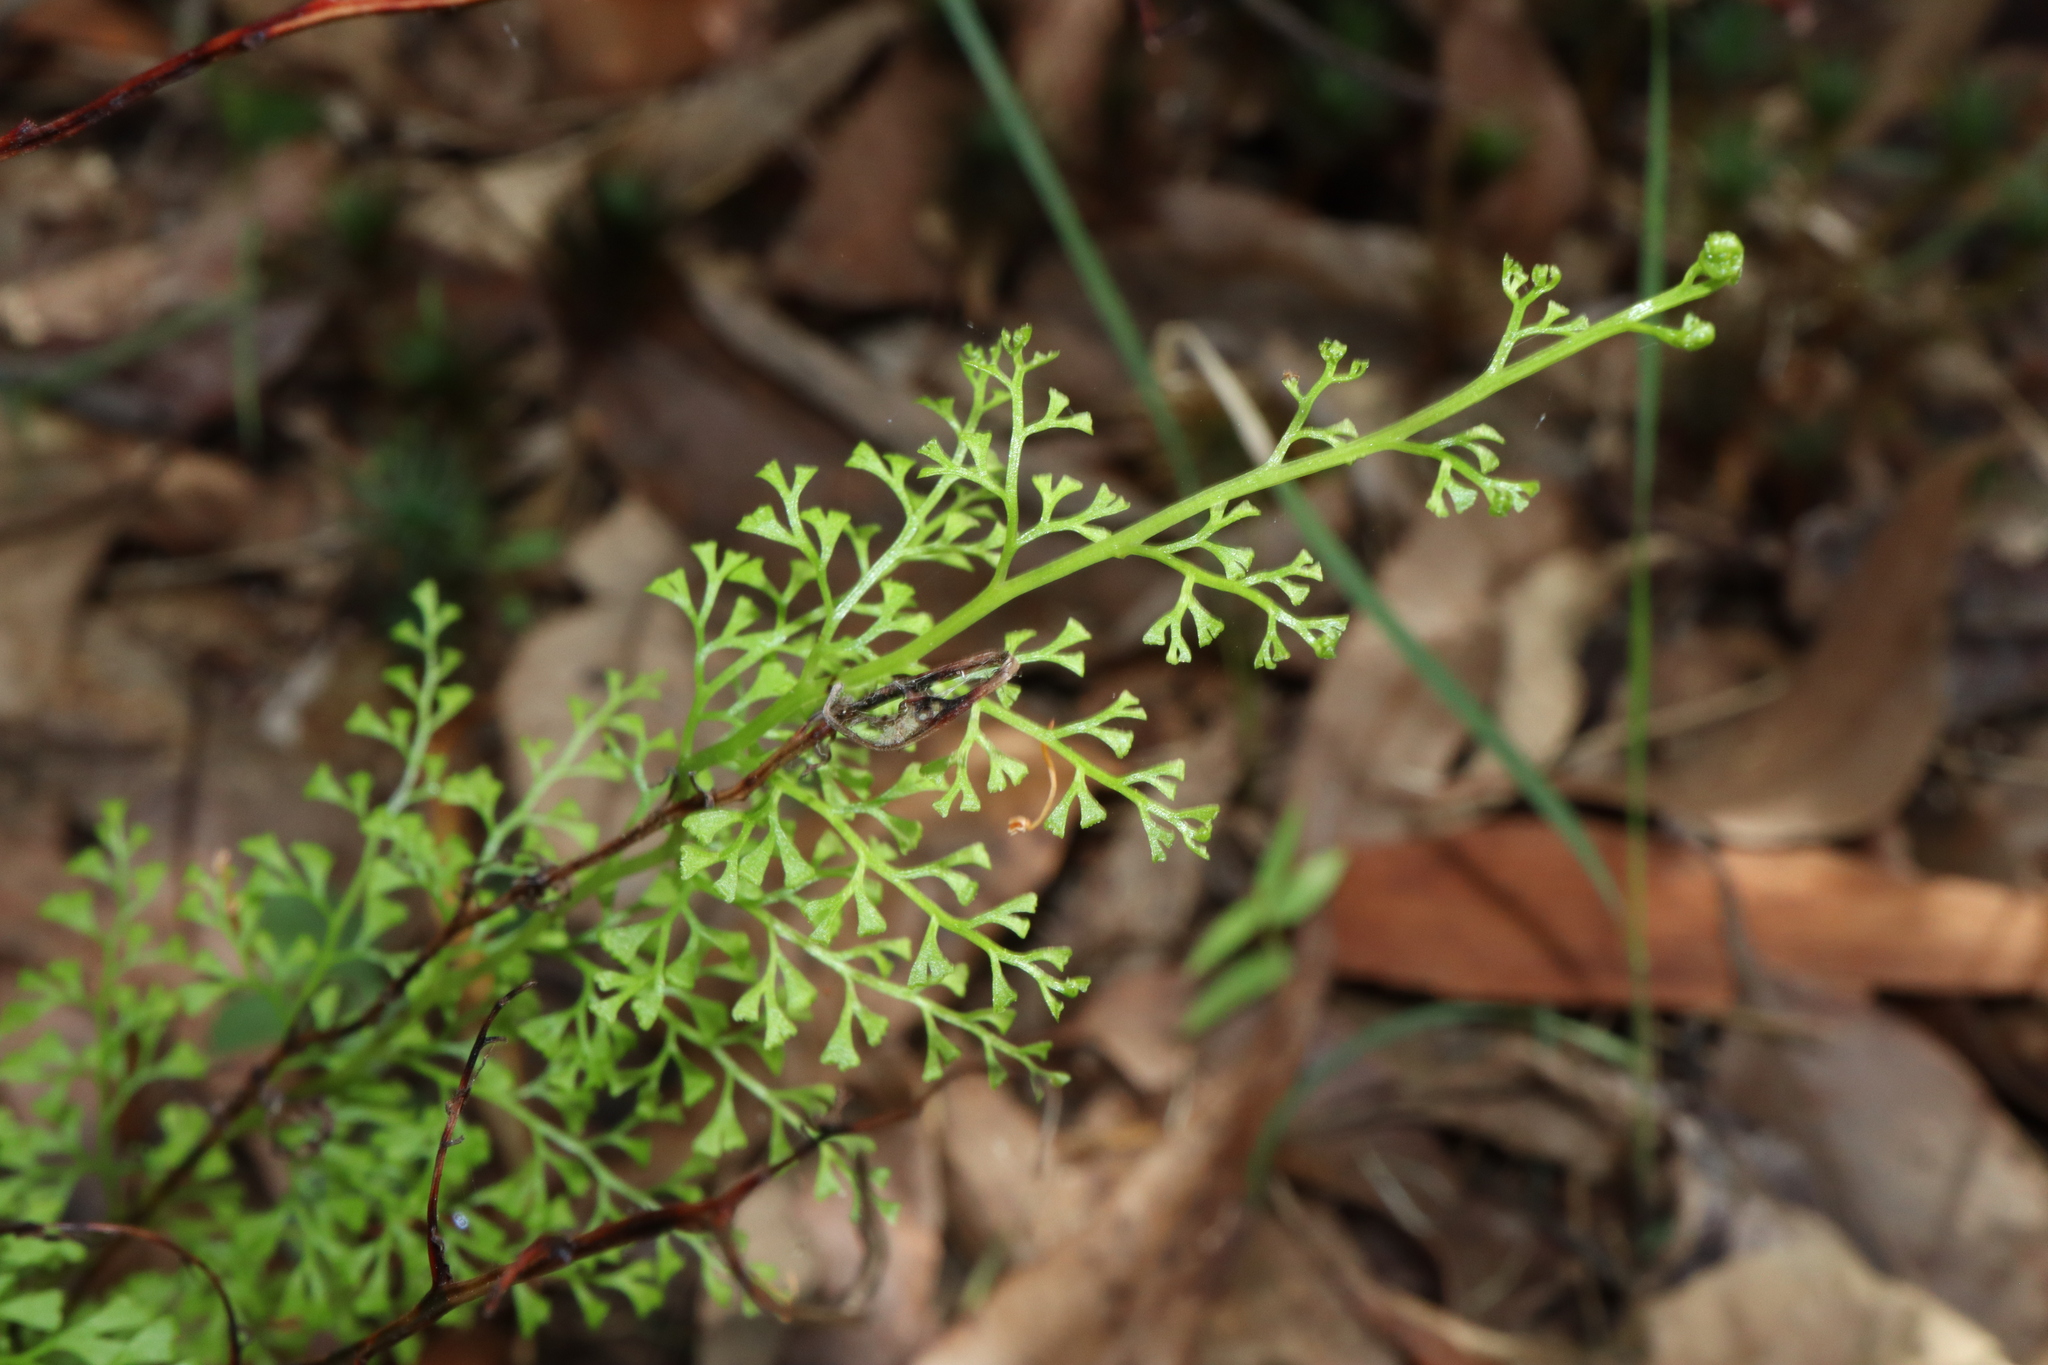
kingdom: Plantae
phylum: Tracheophyta
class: Polypodiopsida
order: Polypodiales
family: Lindsaeaceae
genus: Lindsaea
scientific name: Lindsaea microphylla
